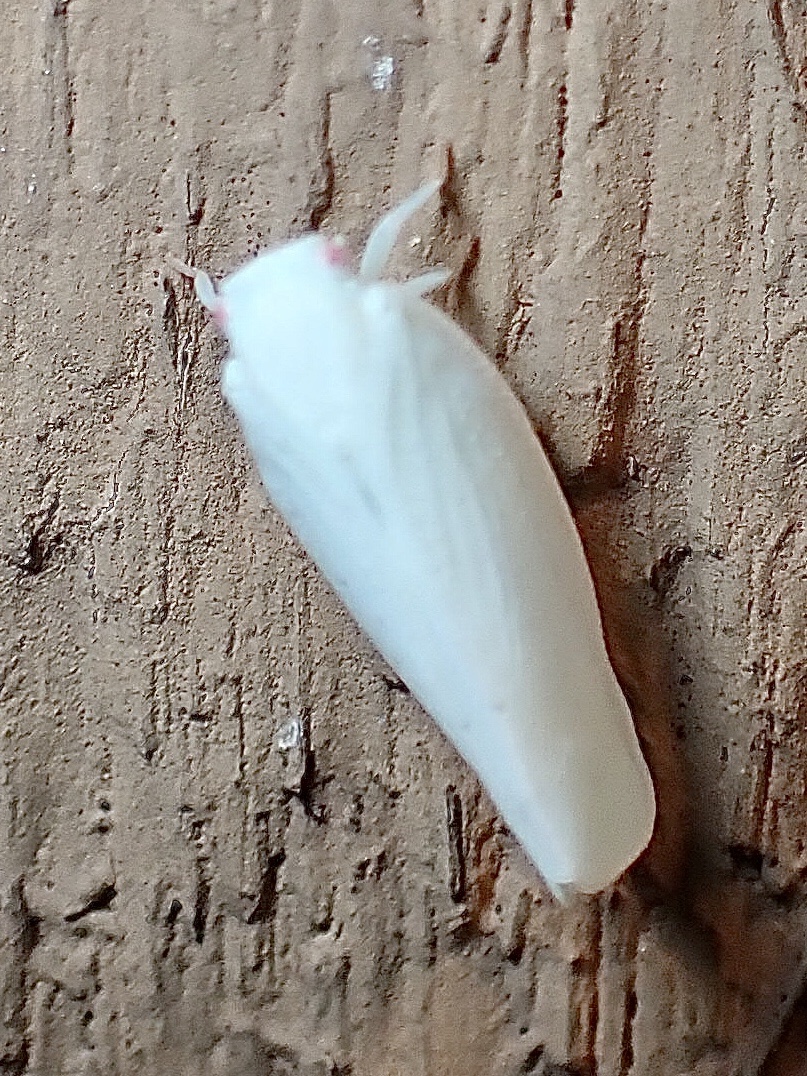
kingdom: Animalia
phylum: Arthropoda
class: Insecta
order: Hemiptera
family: Flatidae
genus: Flatormenis
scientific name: Flatormenis proxima
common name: Northern flatid planthopper
